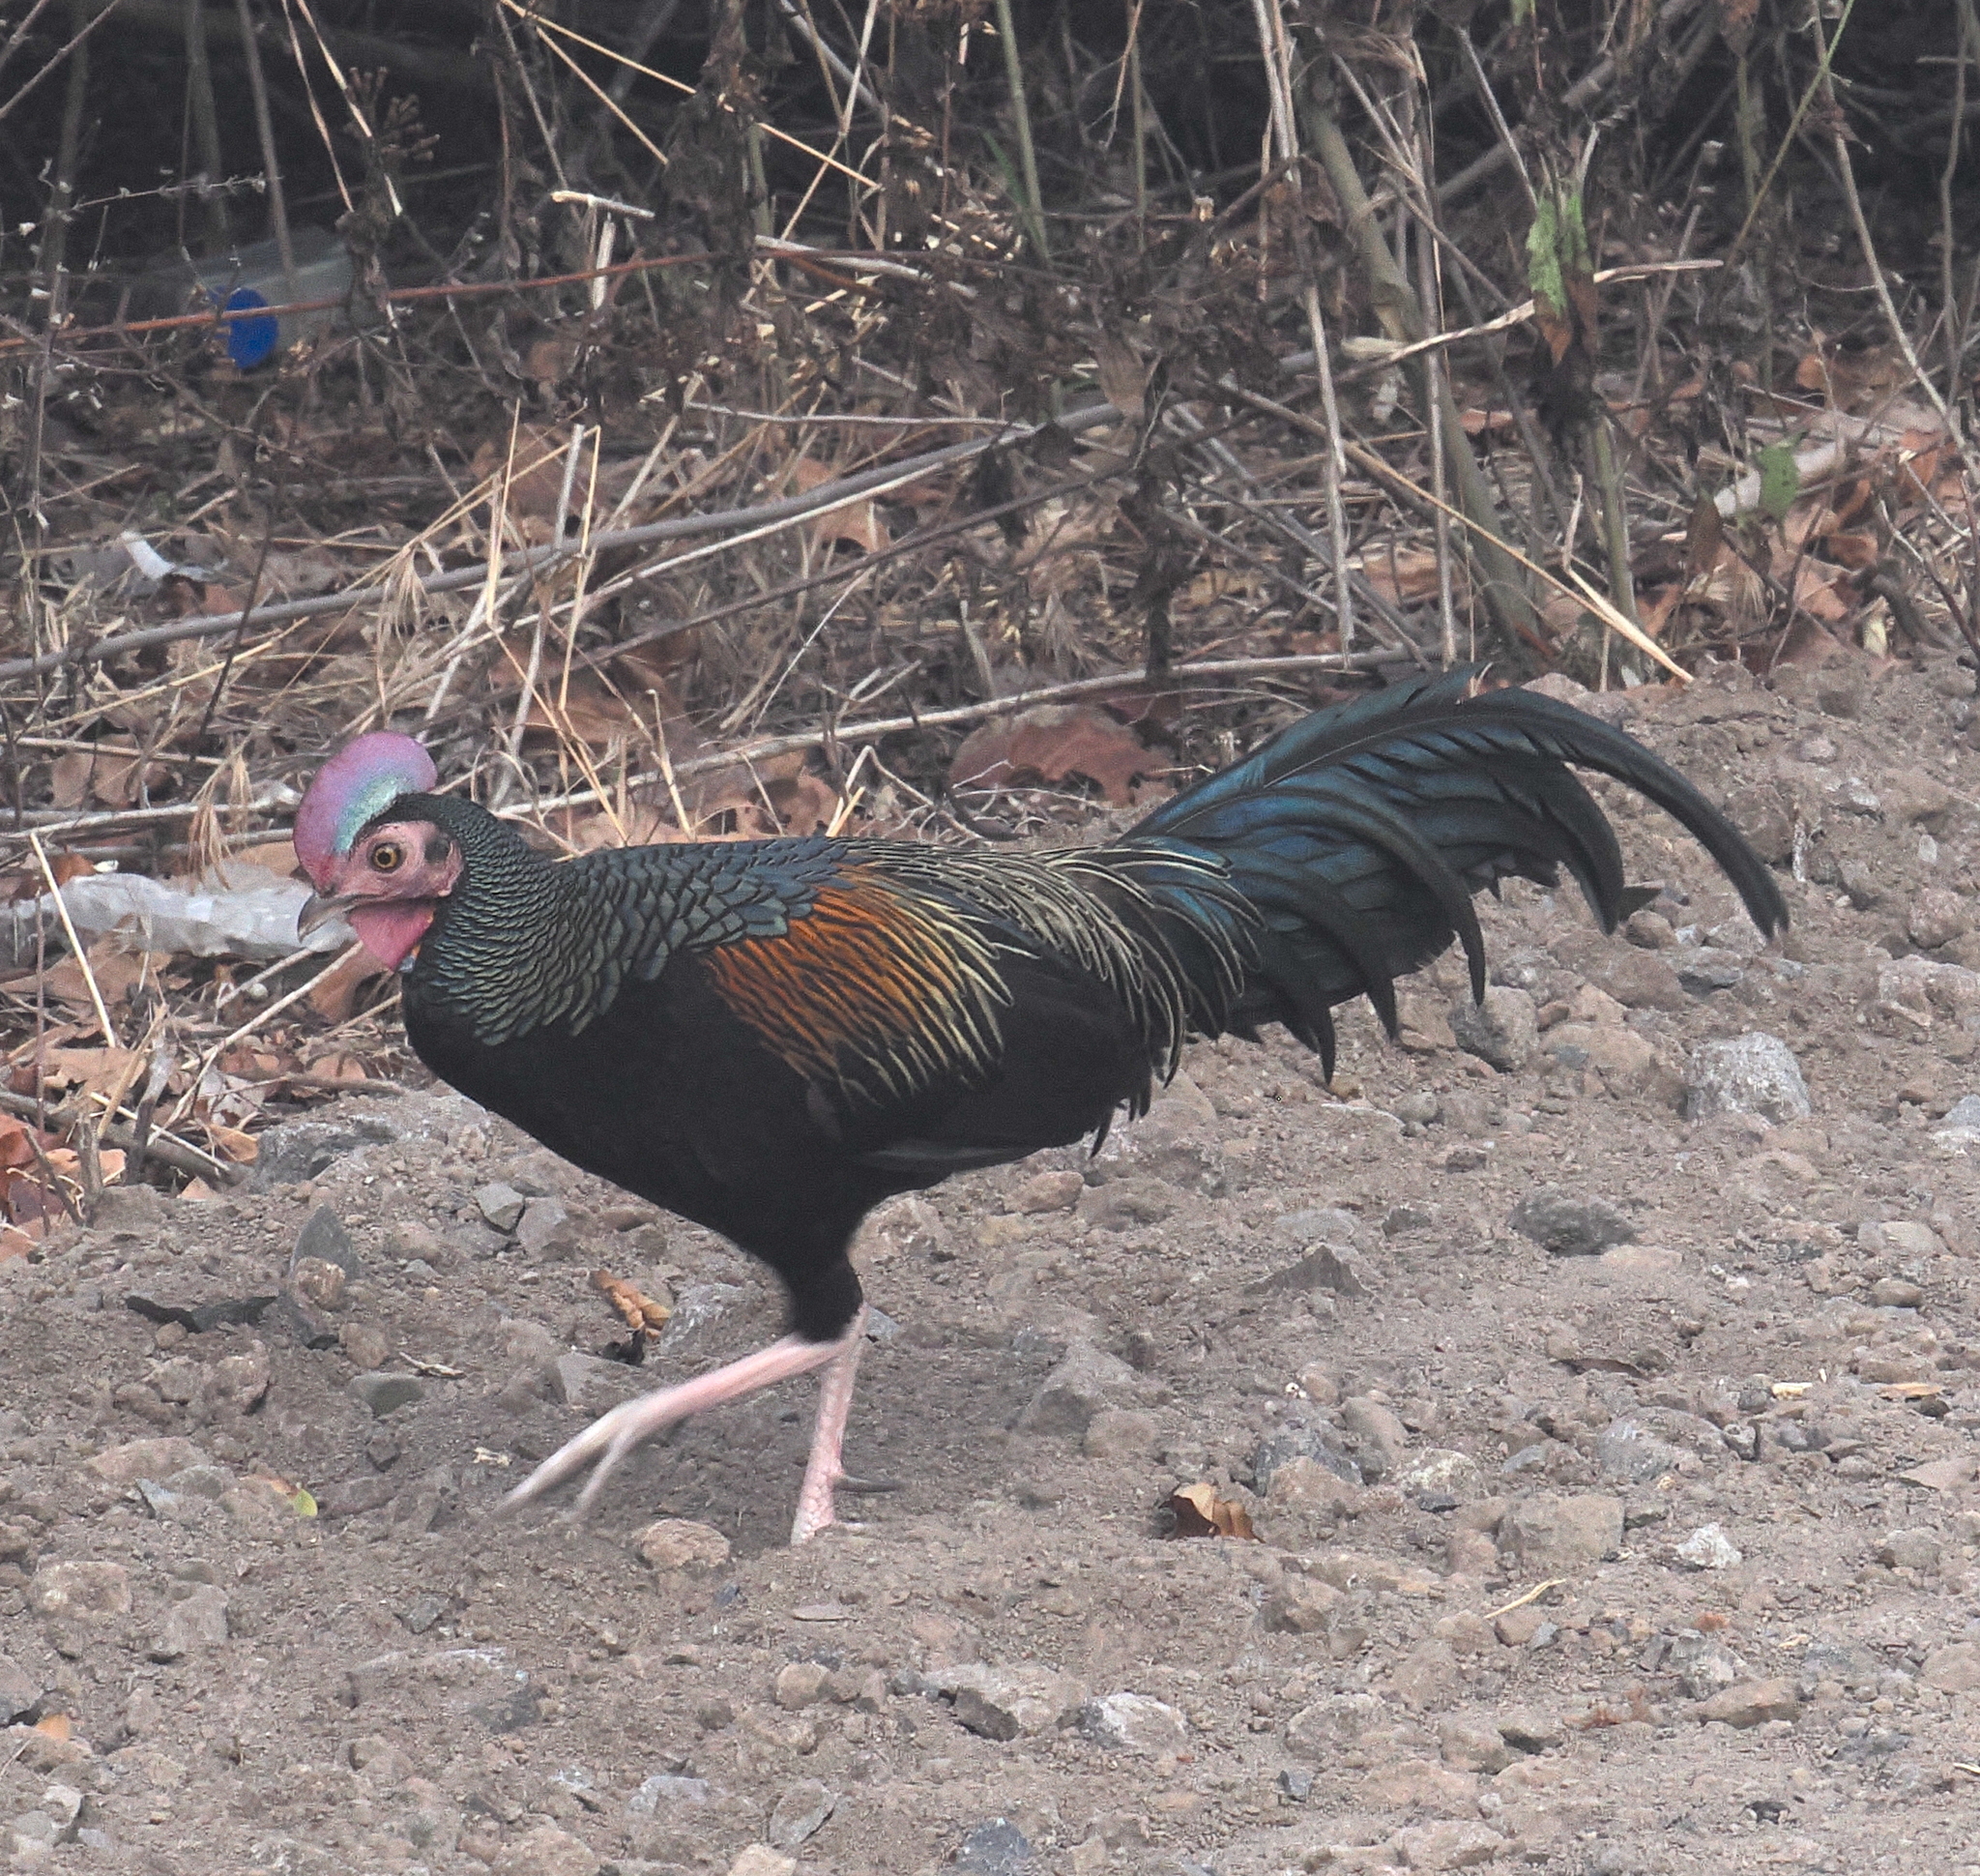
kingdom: Animalia
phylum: Chordata
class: Aves
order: Galliformes
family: Phasianidae
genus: Gallus
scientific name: Gallus varius
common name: Green junglefowl
